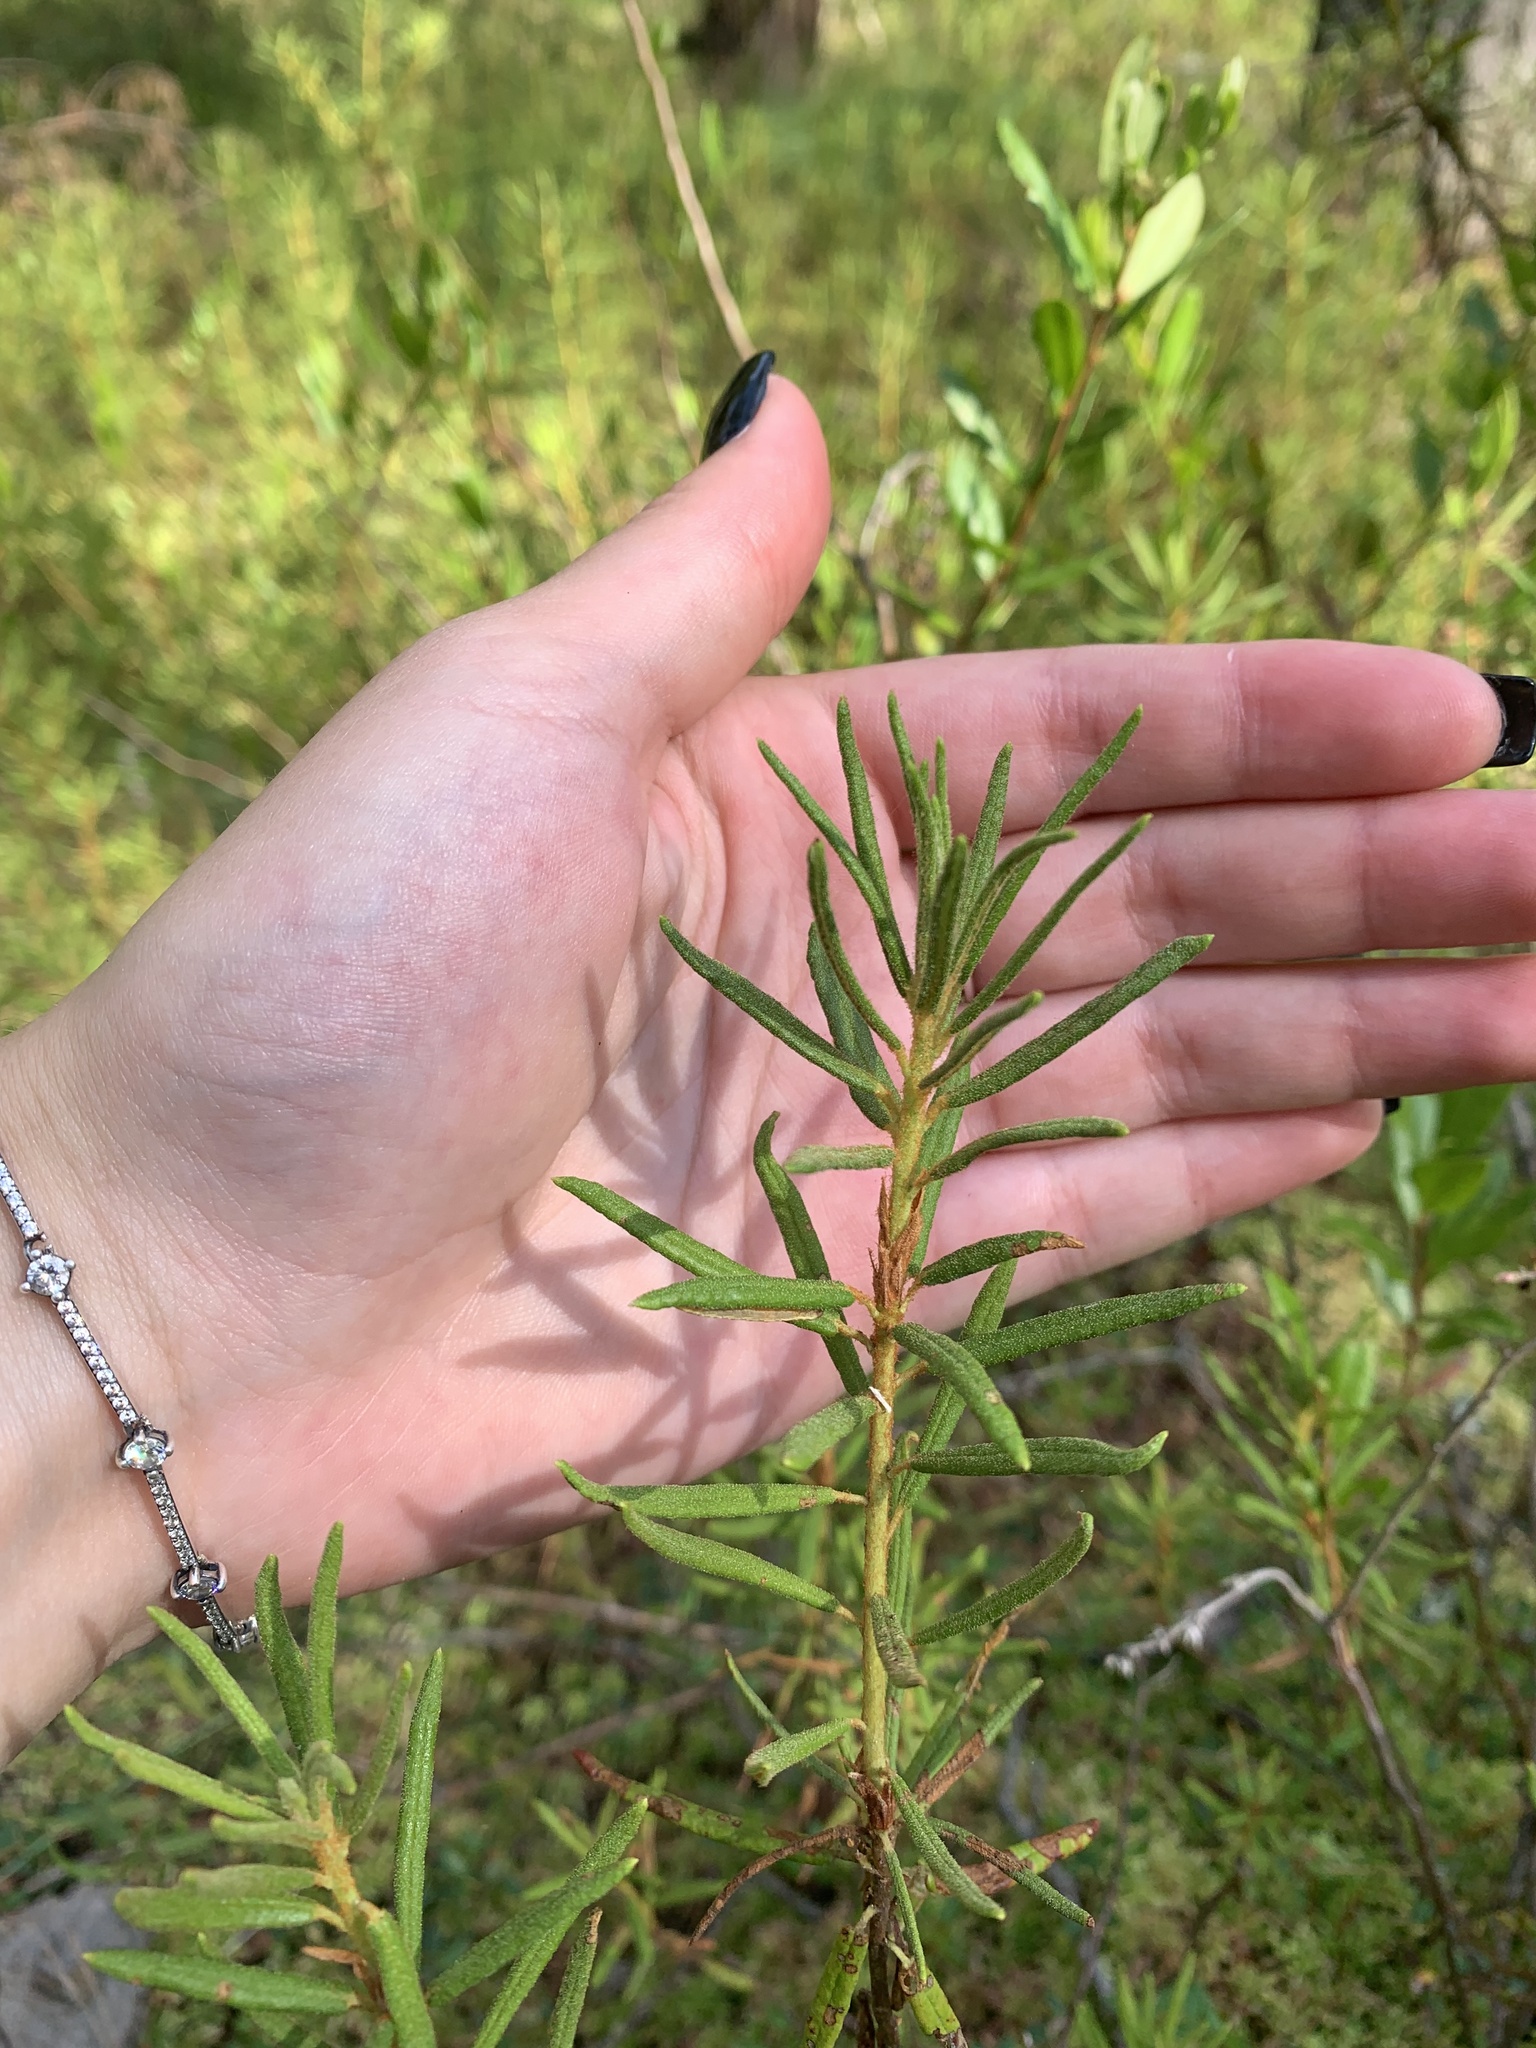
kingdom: Plantae
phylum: Tracheophyta
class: Magnoliopsida
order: Ericales
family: Ericaceae
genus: Rhododendron
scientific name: Rhododendron tomentosum
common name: Marsh labrador tea
